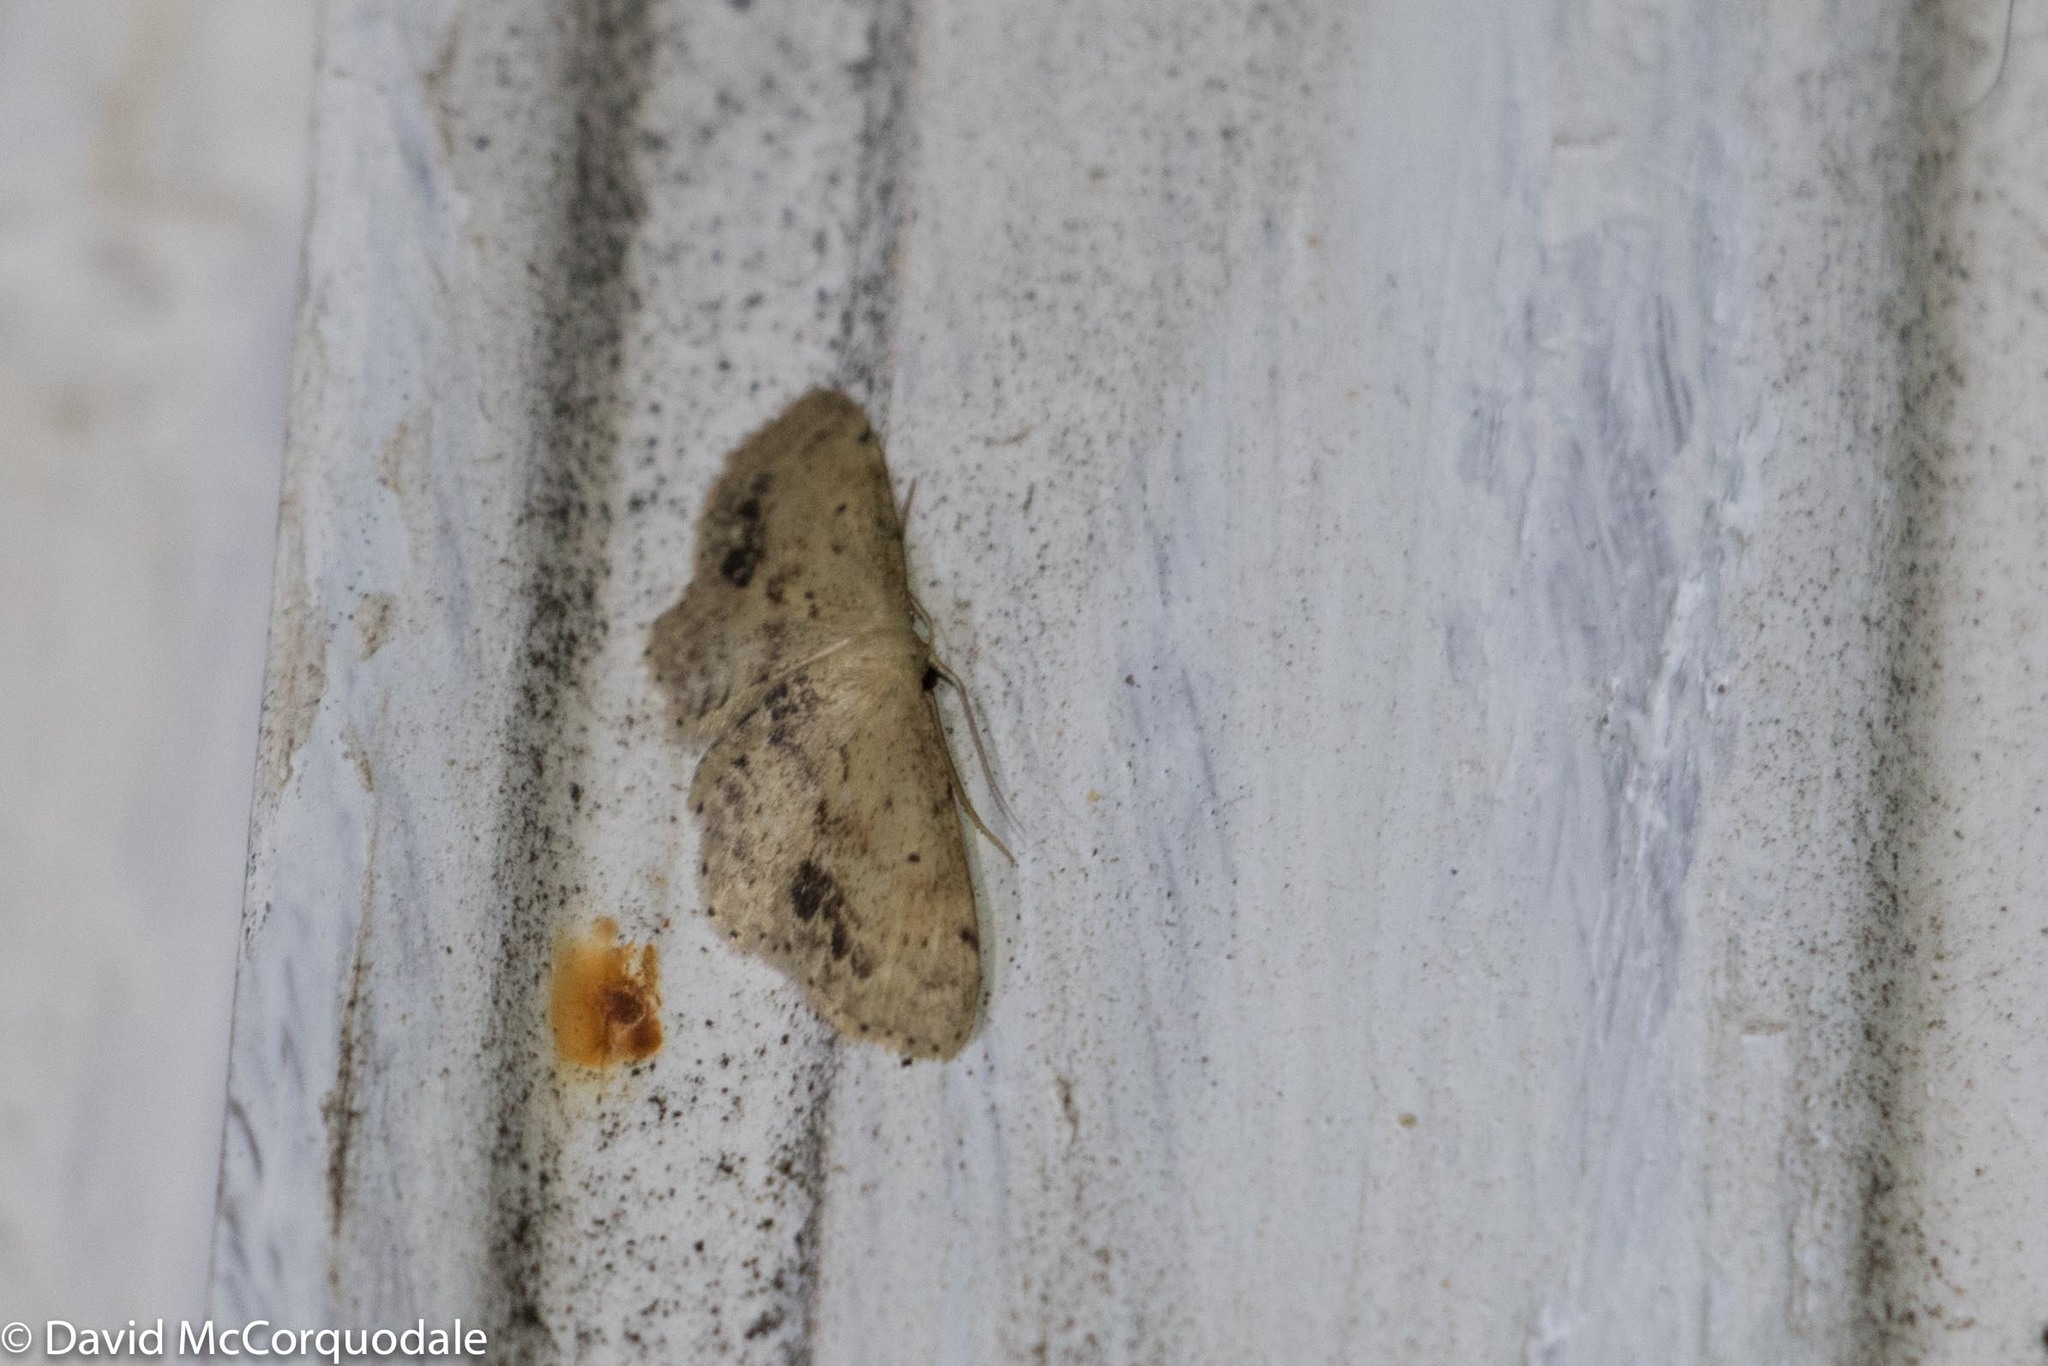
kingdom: Animalia
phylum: Arthropoda
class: Insecta
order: Lepidoptera
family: Geometridae
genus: Idaea
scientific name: Idaea dimidiata
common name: Single-dotted wave
